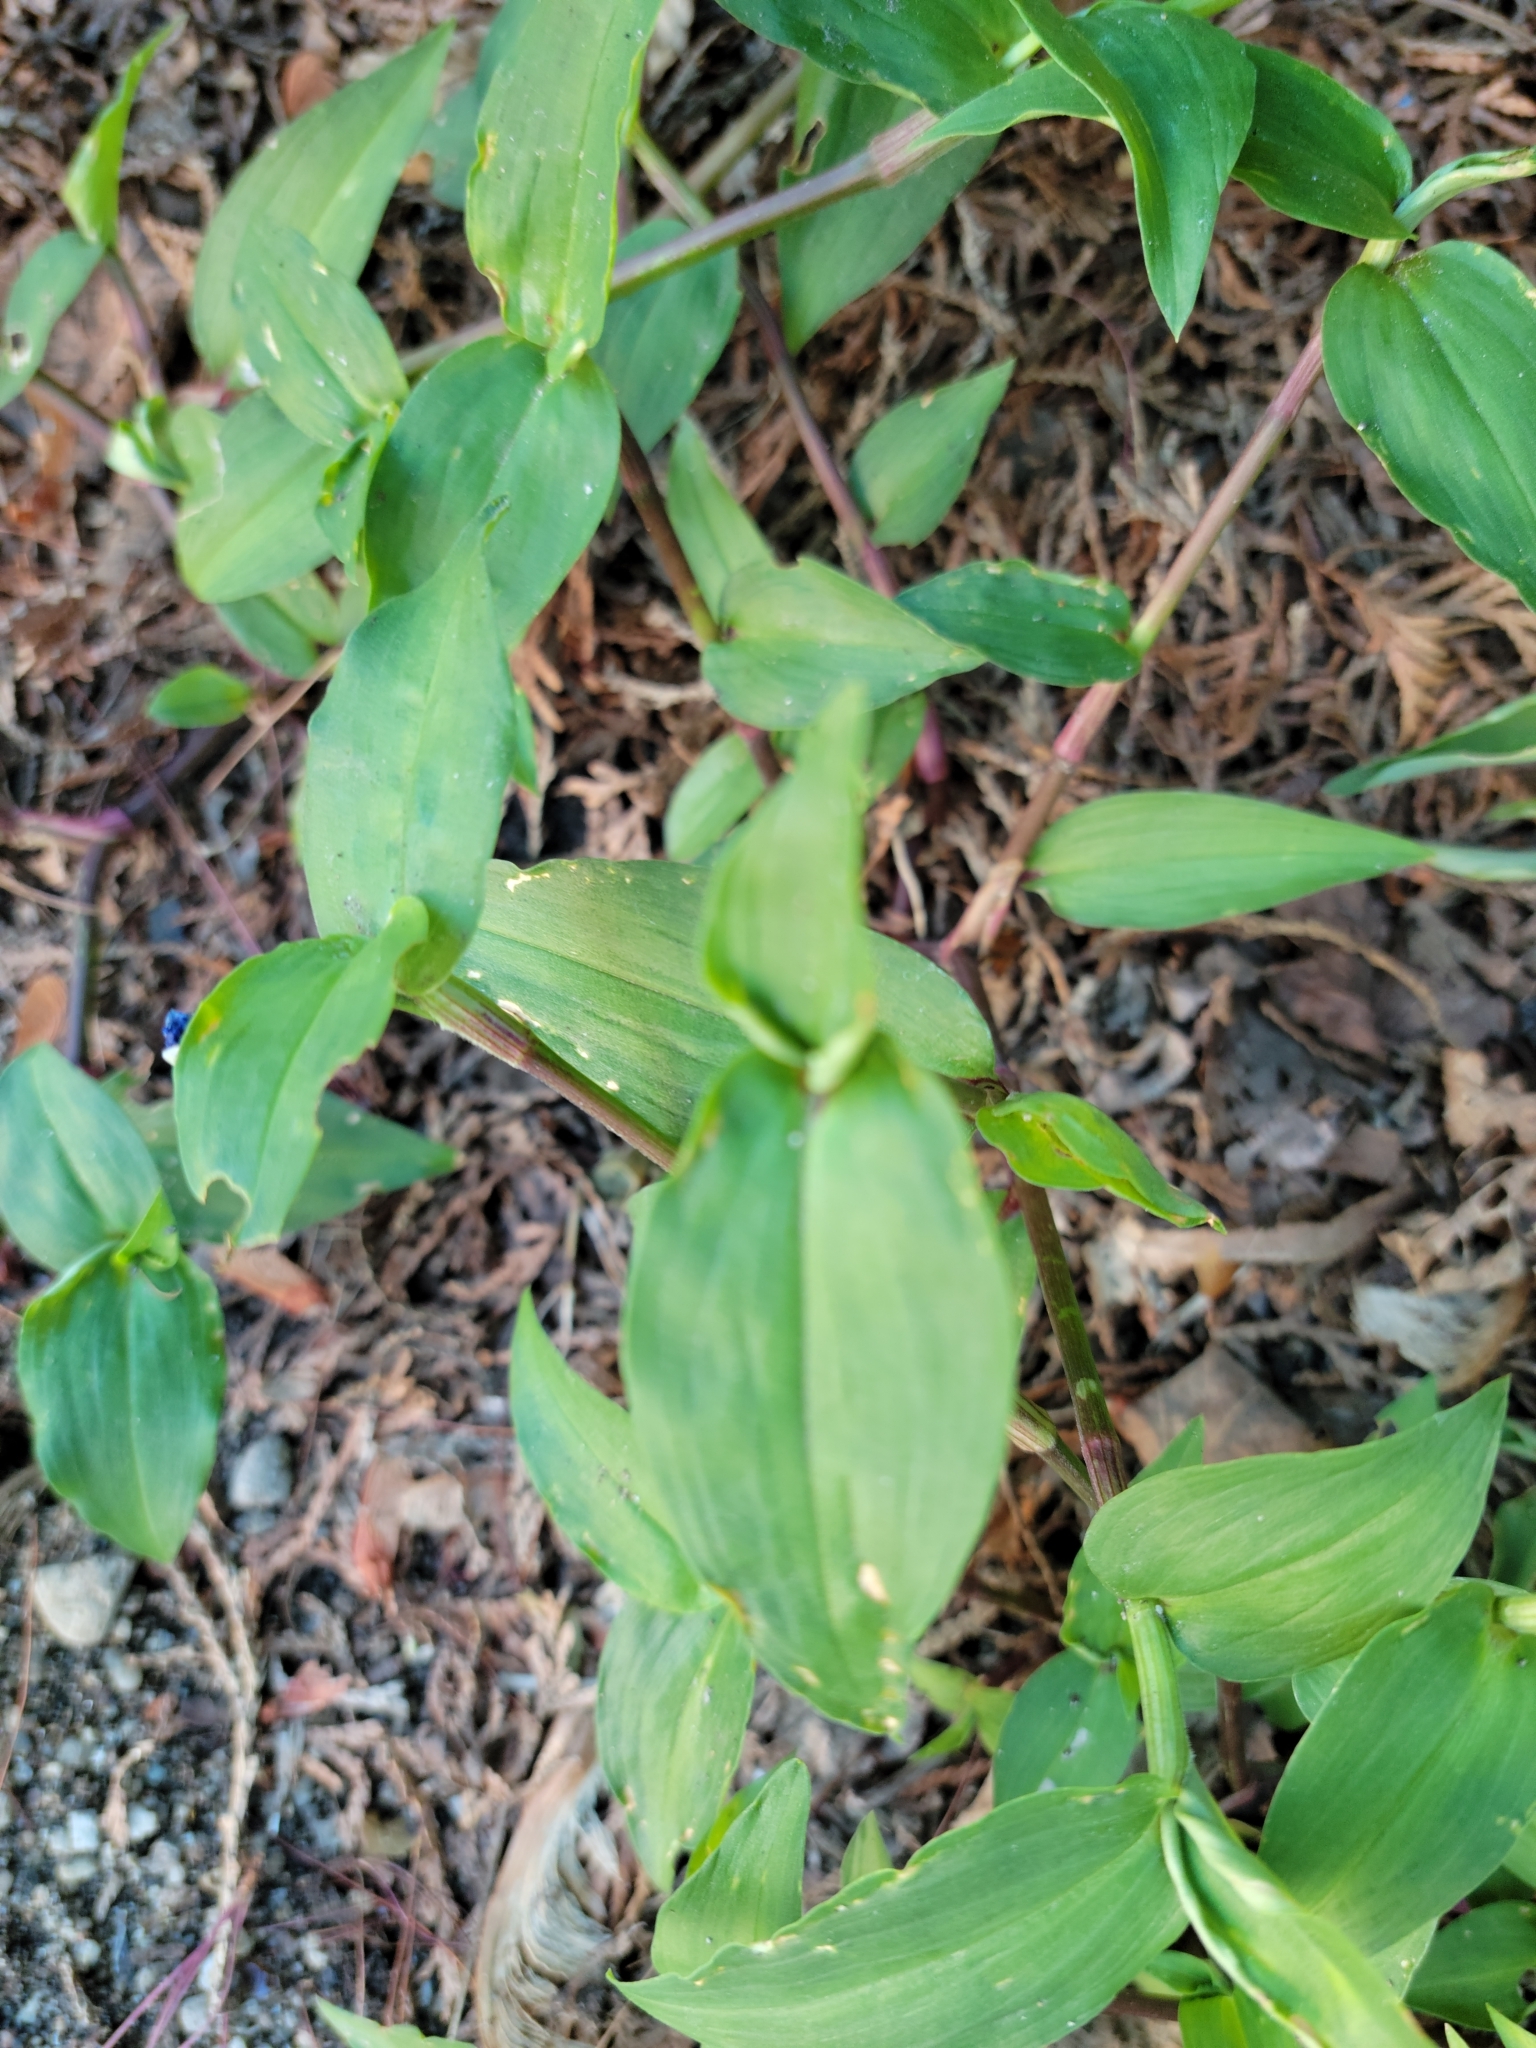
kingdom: Plantae
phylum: Tracheophyta
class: Liliopsida
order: Commelinales
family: Commelinaceae
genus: Commelina
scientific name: Commelina communis
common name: Asiatic dayflower
